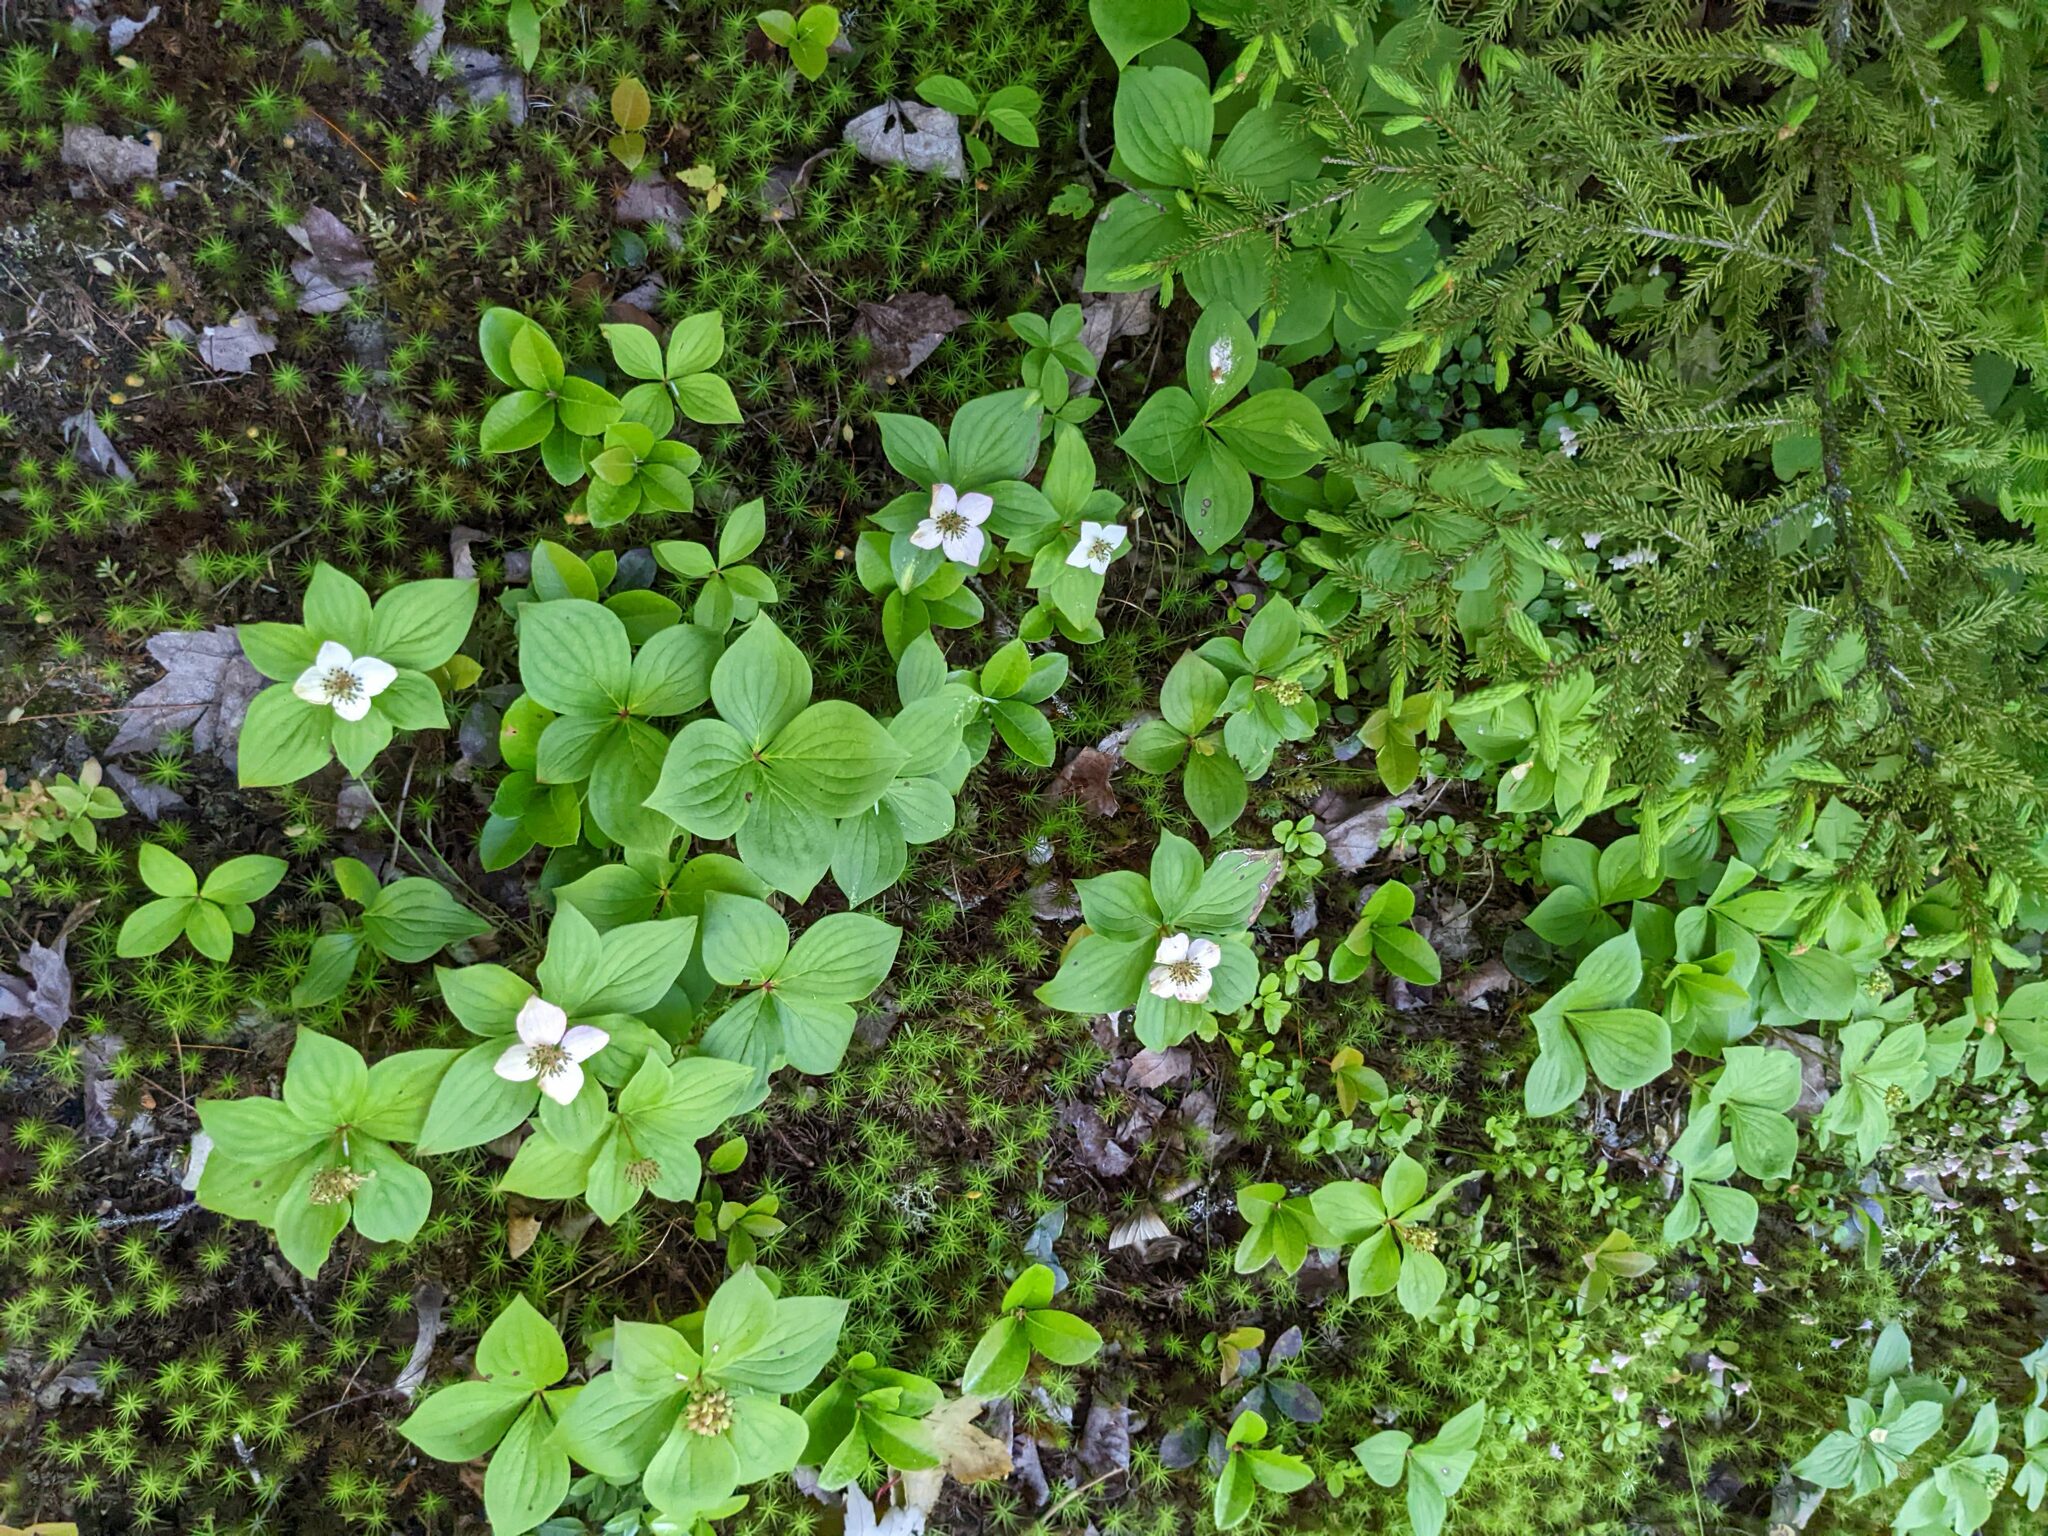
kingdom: Plantae
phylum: Tracheophyta
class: Magnoliopsida
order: Cornales
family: Cornaceae
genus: Cornus
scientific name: Cornus canadensis
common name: Creeping dogwood
